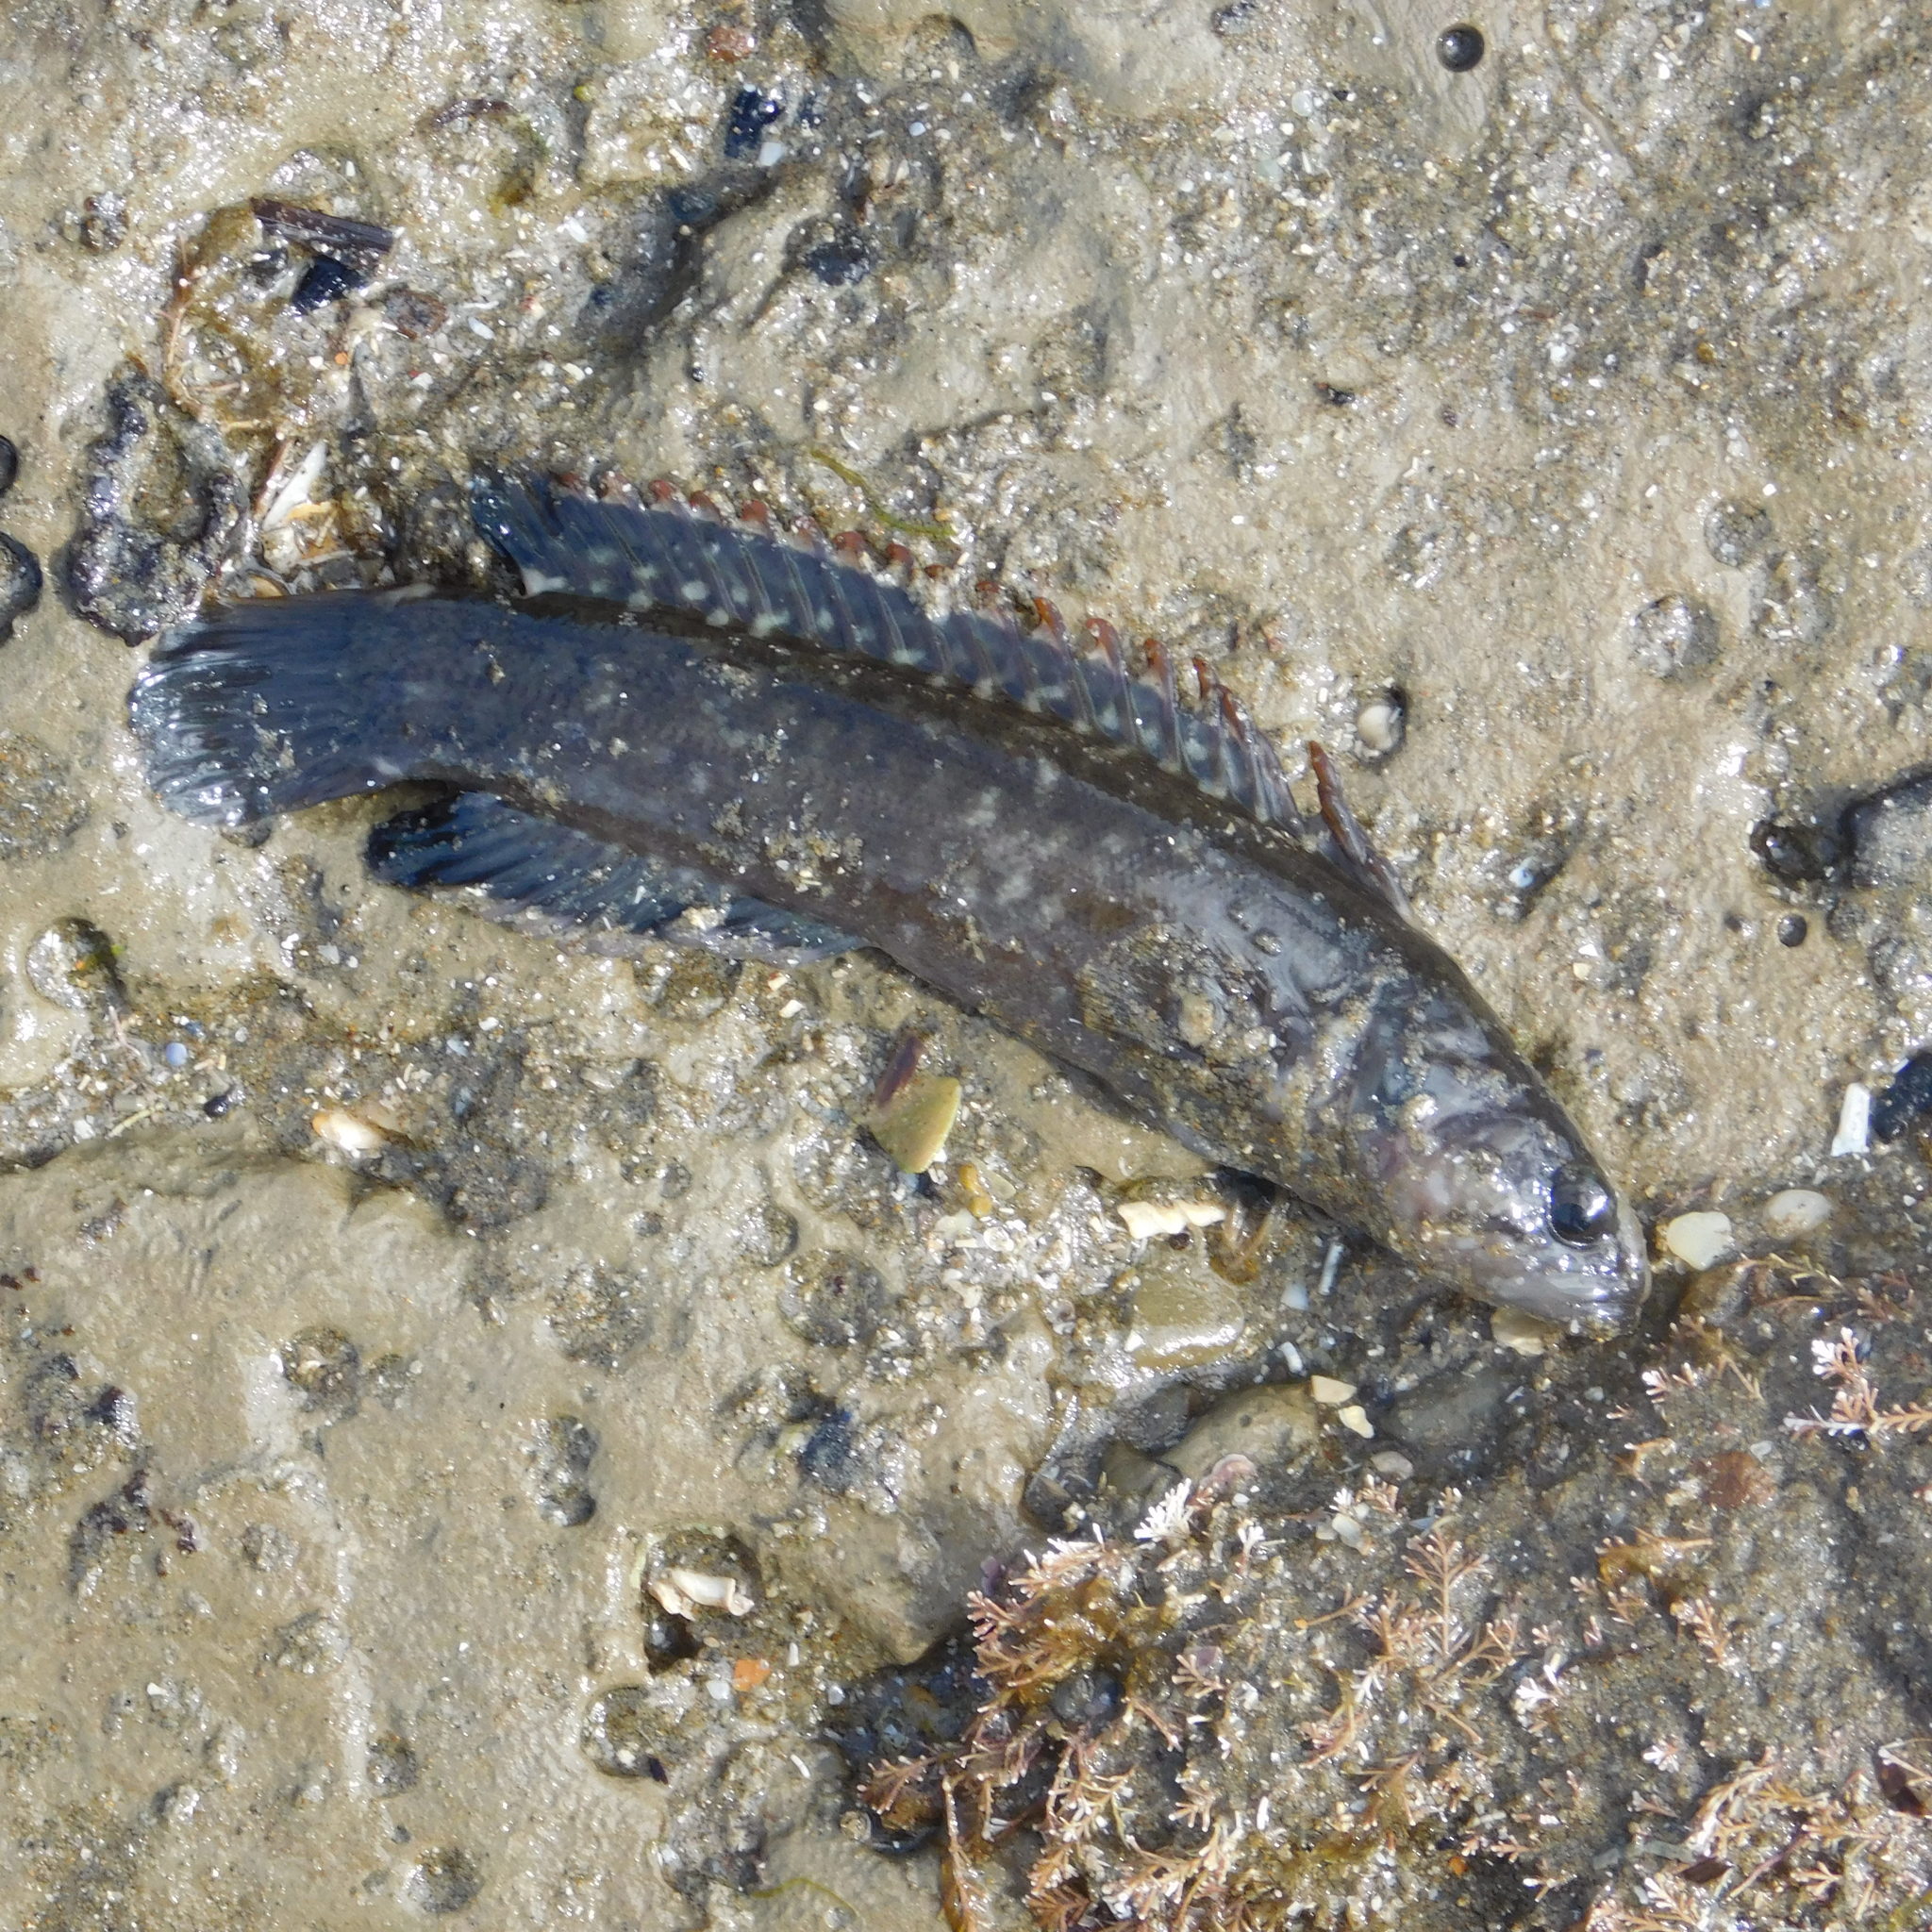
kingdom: Animalia
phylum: Chordata
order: Perciformes
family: Plesiopidae
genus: Acanthoclinus
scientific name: Acanthoclinus fuscus
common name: Olive rockfish
